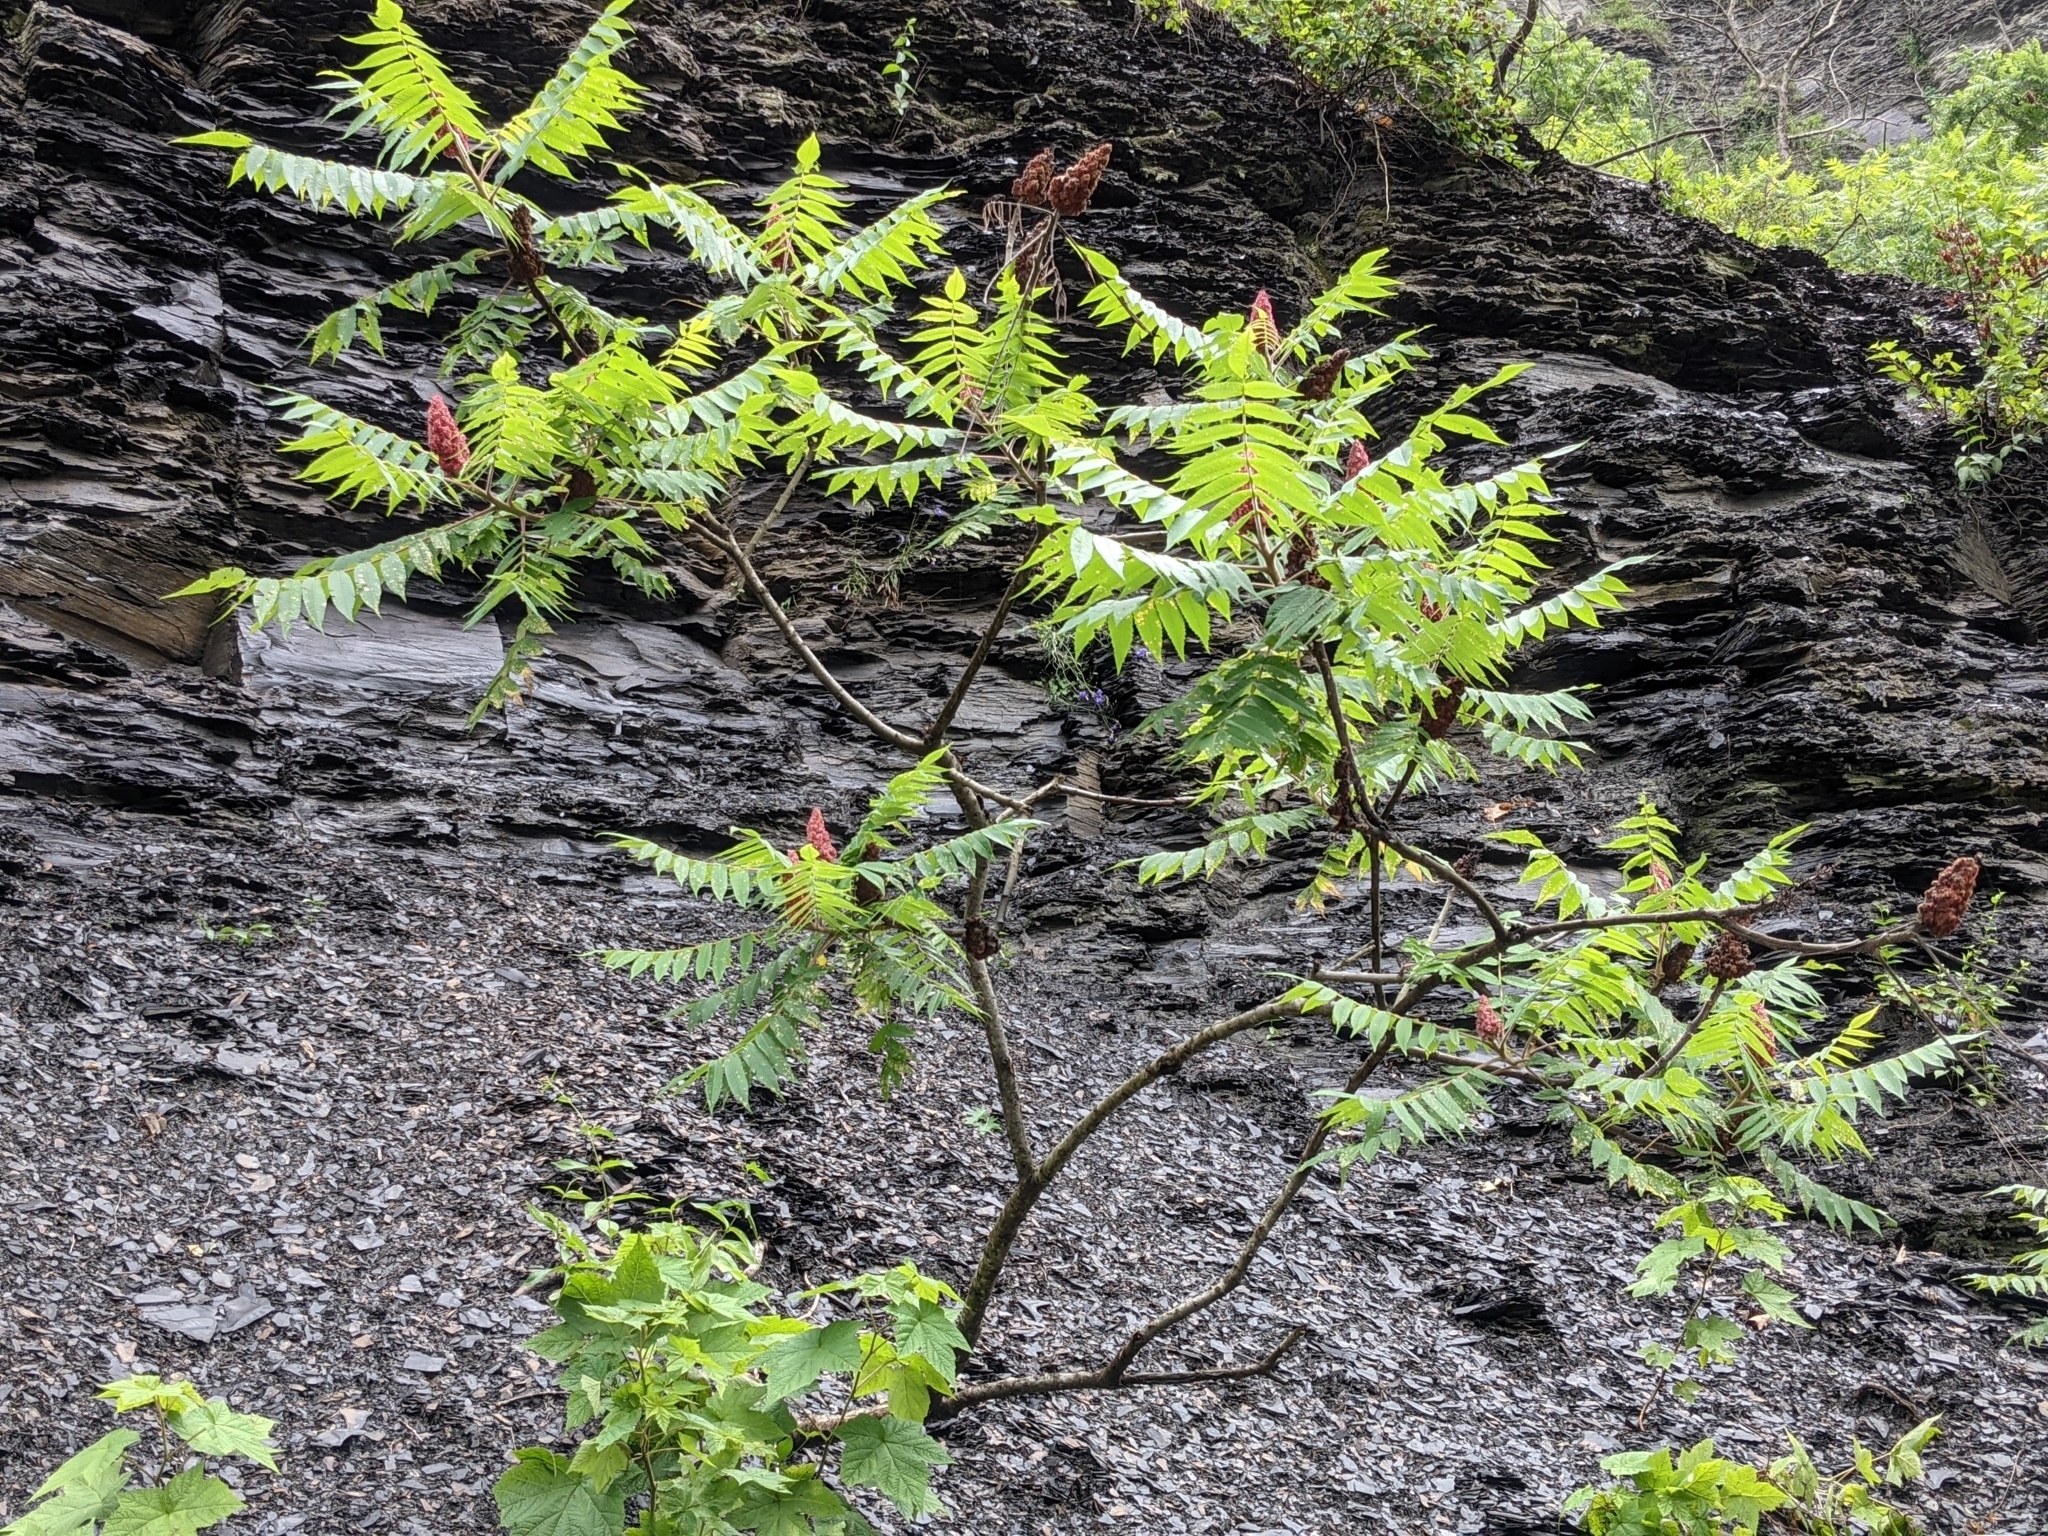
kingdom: Plantae
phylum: Tracheophyta
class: Magnoliopsida
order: Sapindales
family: Anacardiaceae
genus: Rhus
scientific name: Rhus typhina
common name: Staghorn sumac
